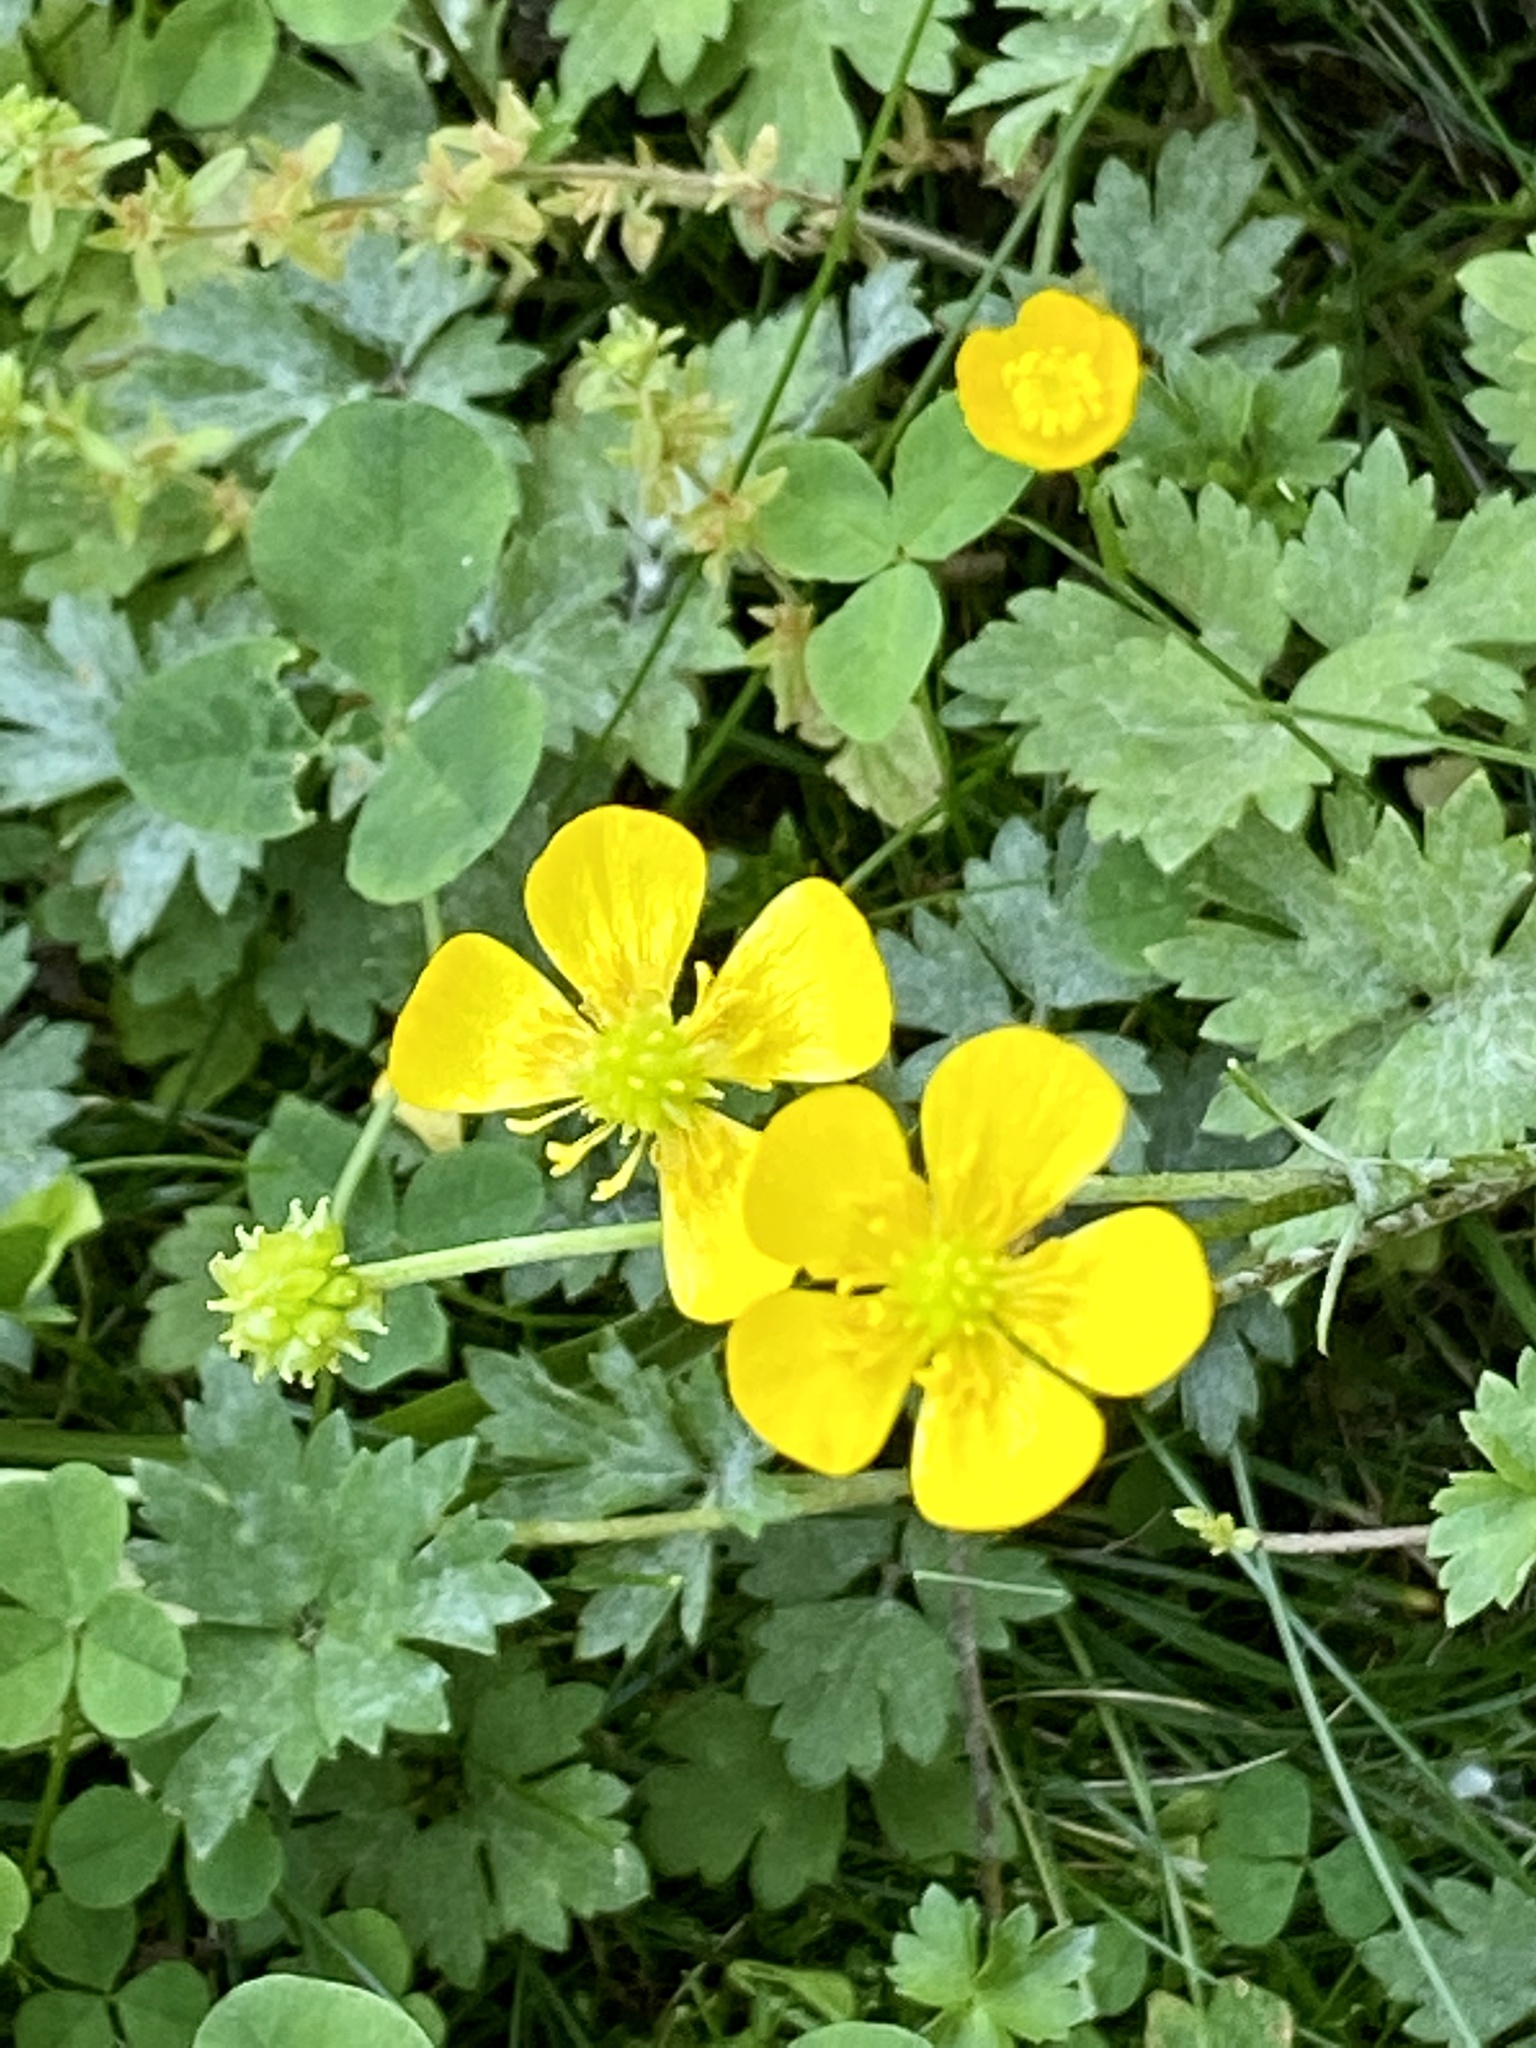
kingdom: Plantae
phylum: Tracheophyta
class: Magnoliopsida
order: Ranunculales
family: Ranunculaceae
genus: Ranunculus
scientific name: Ranunculus repens
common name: Creeping buttercup
